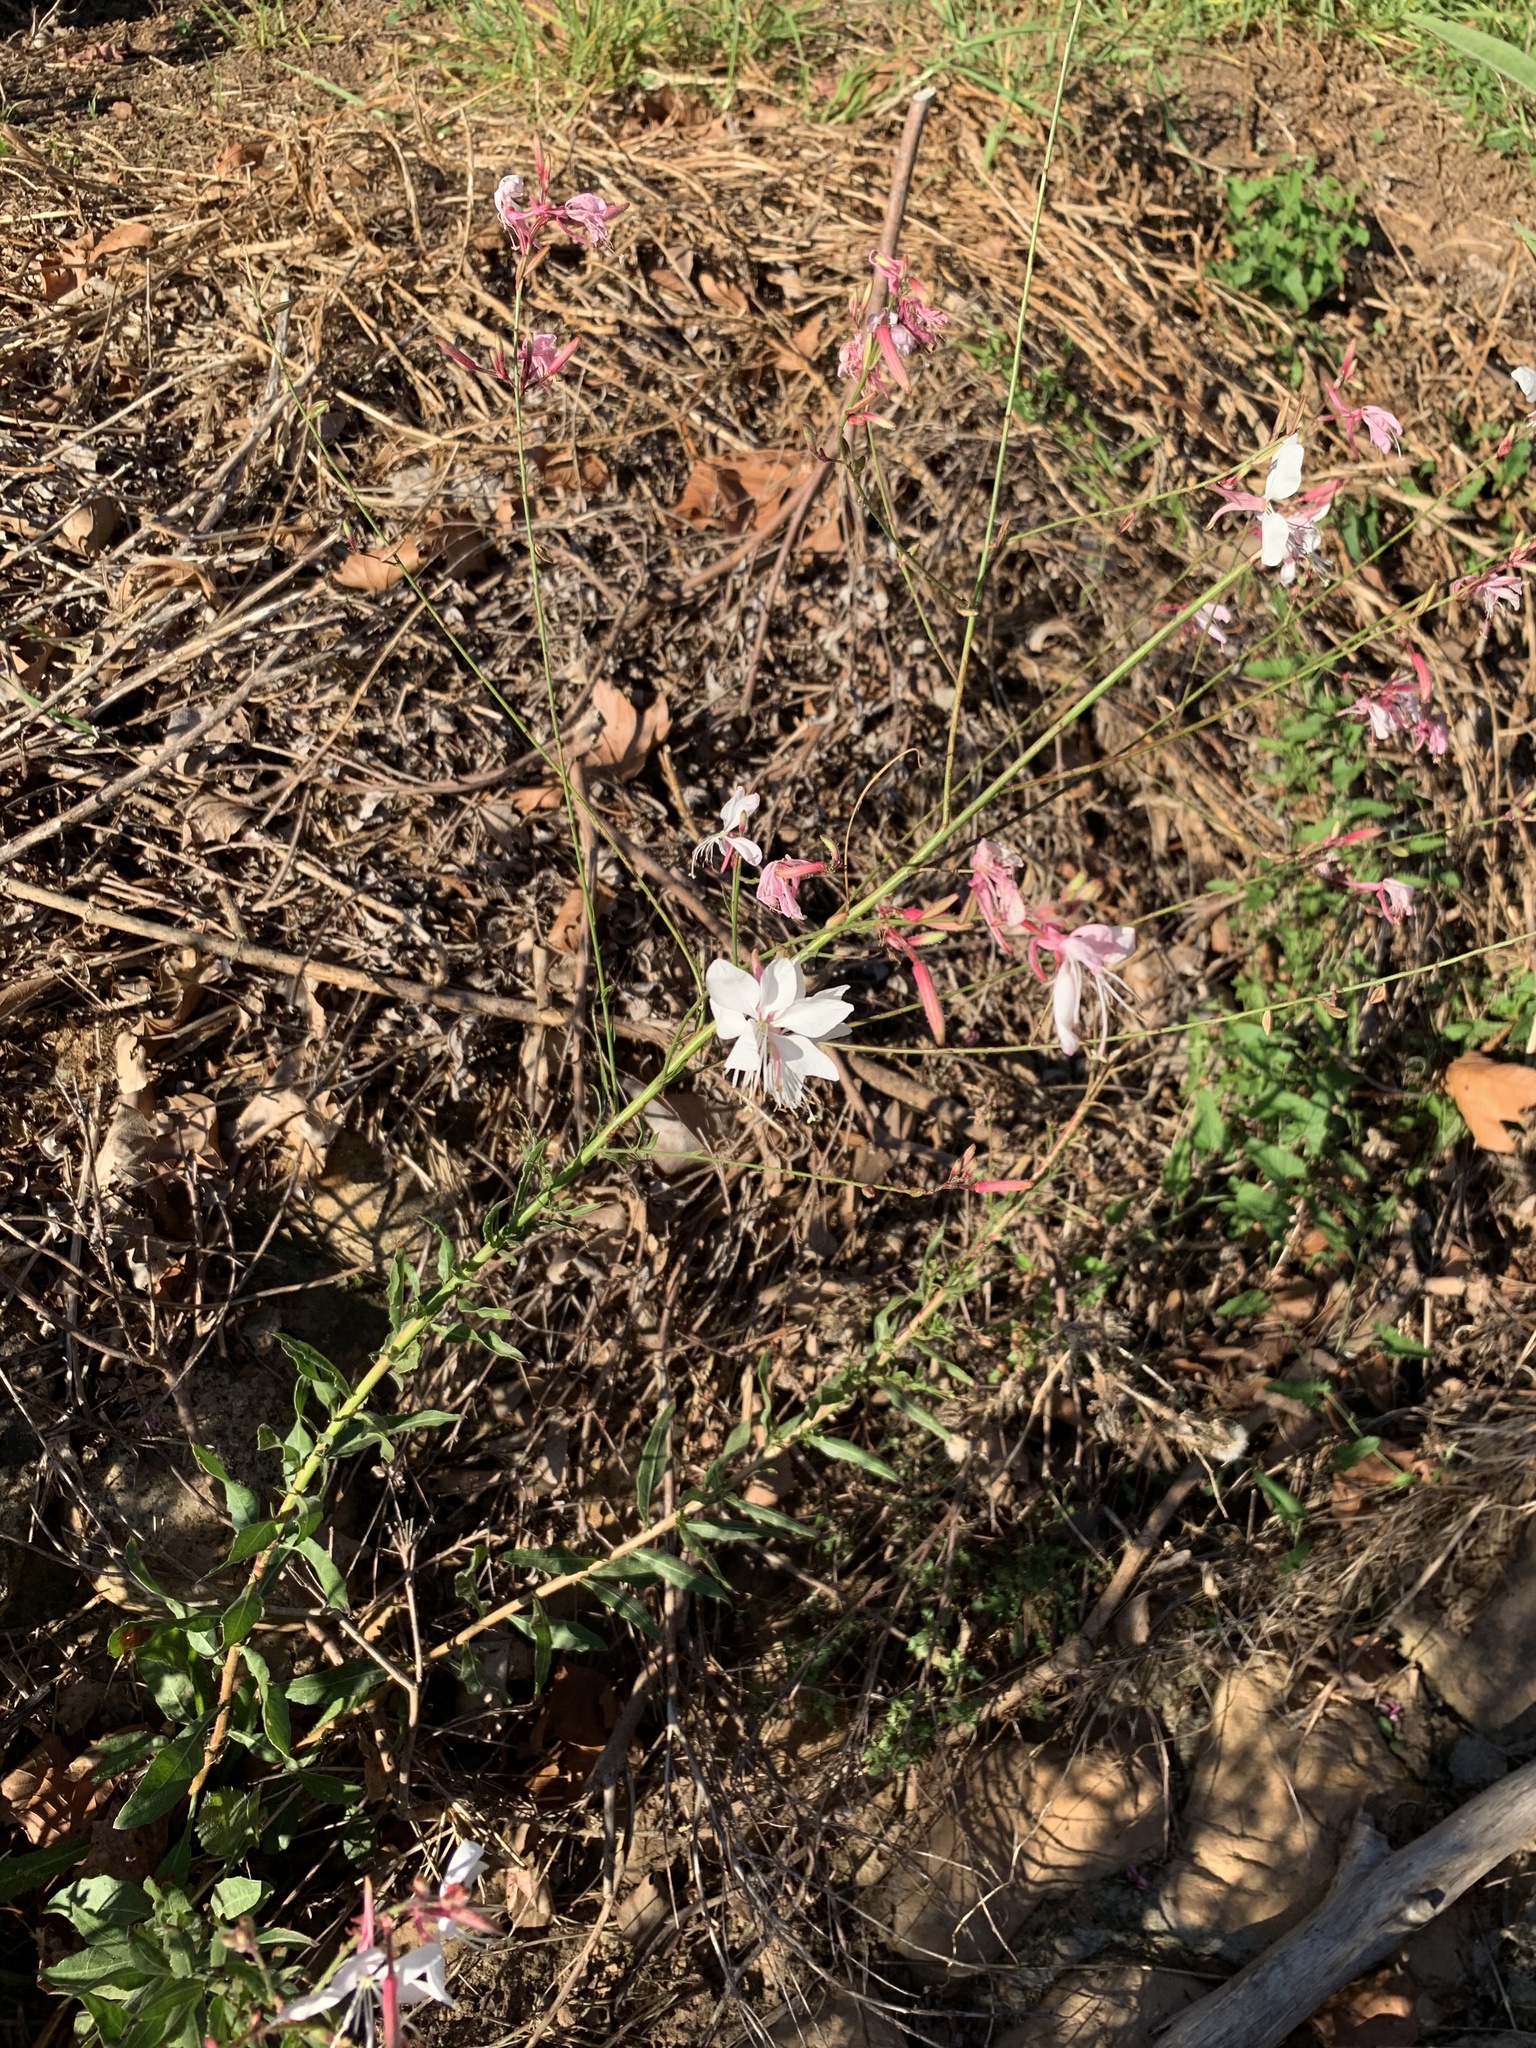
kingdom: Plantae
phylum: Tracheophyta
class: Magnoliopsida
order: Myrtales
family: Onagraceae
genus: Oenothera
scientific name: Oenothera lindheimeri
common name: Lindheimer's beeblossom
